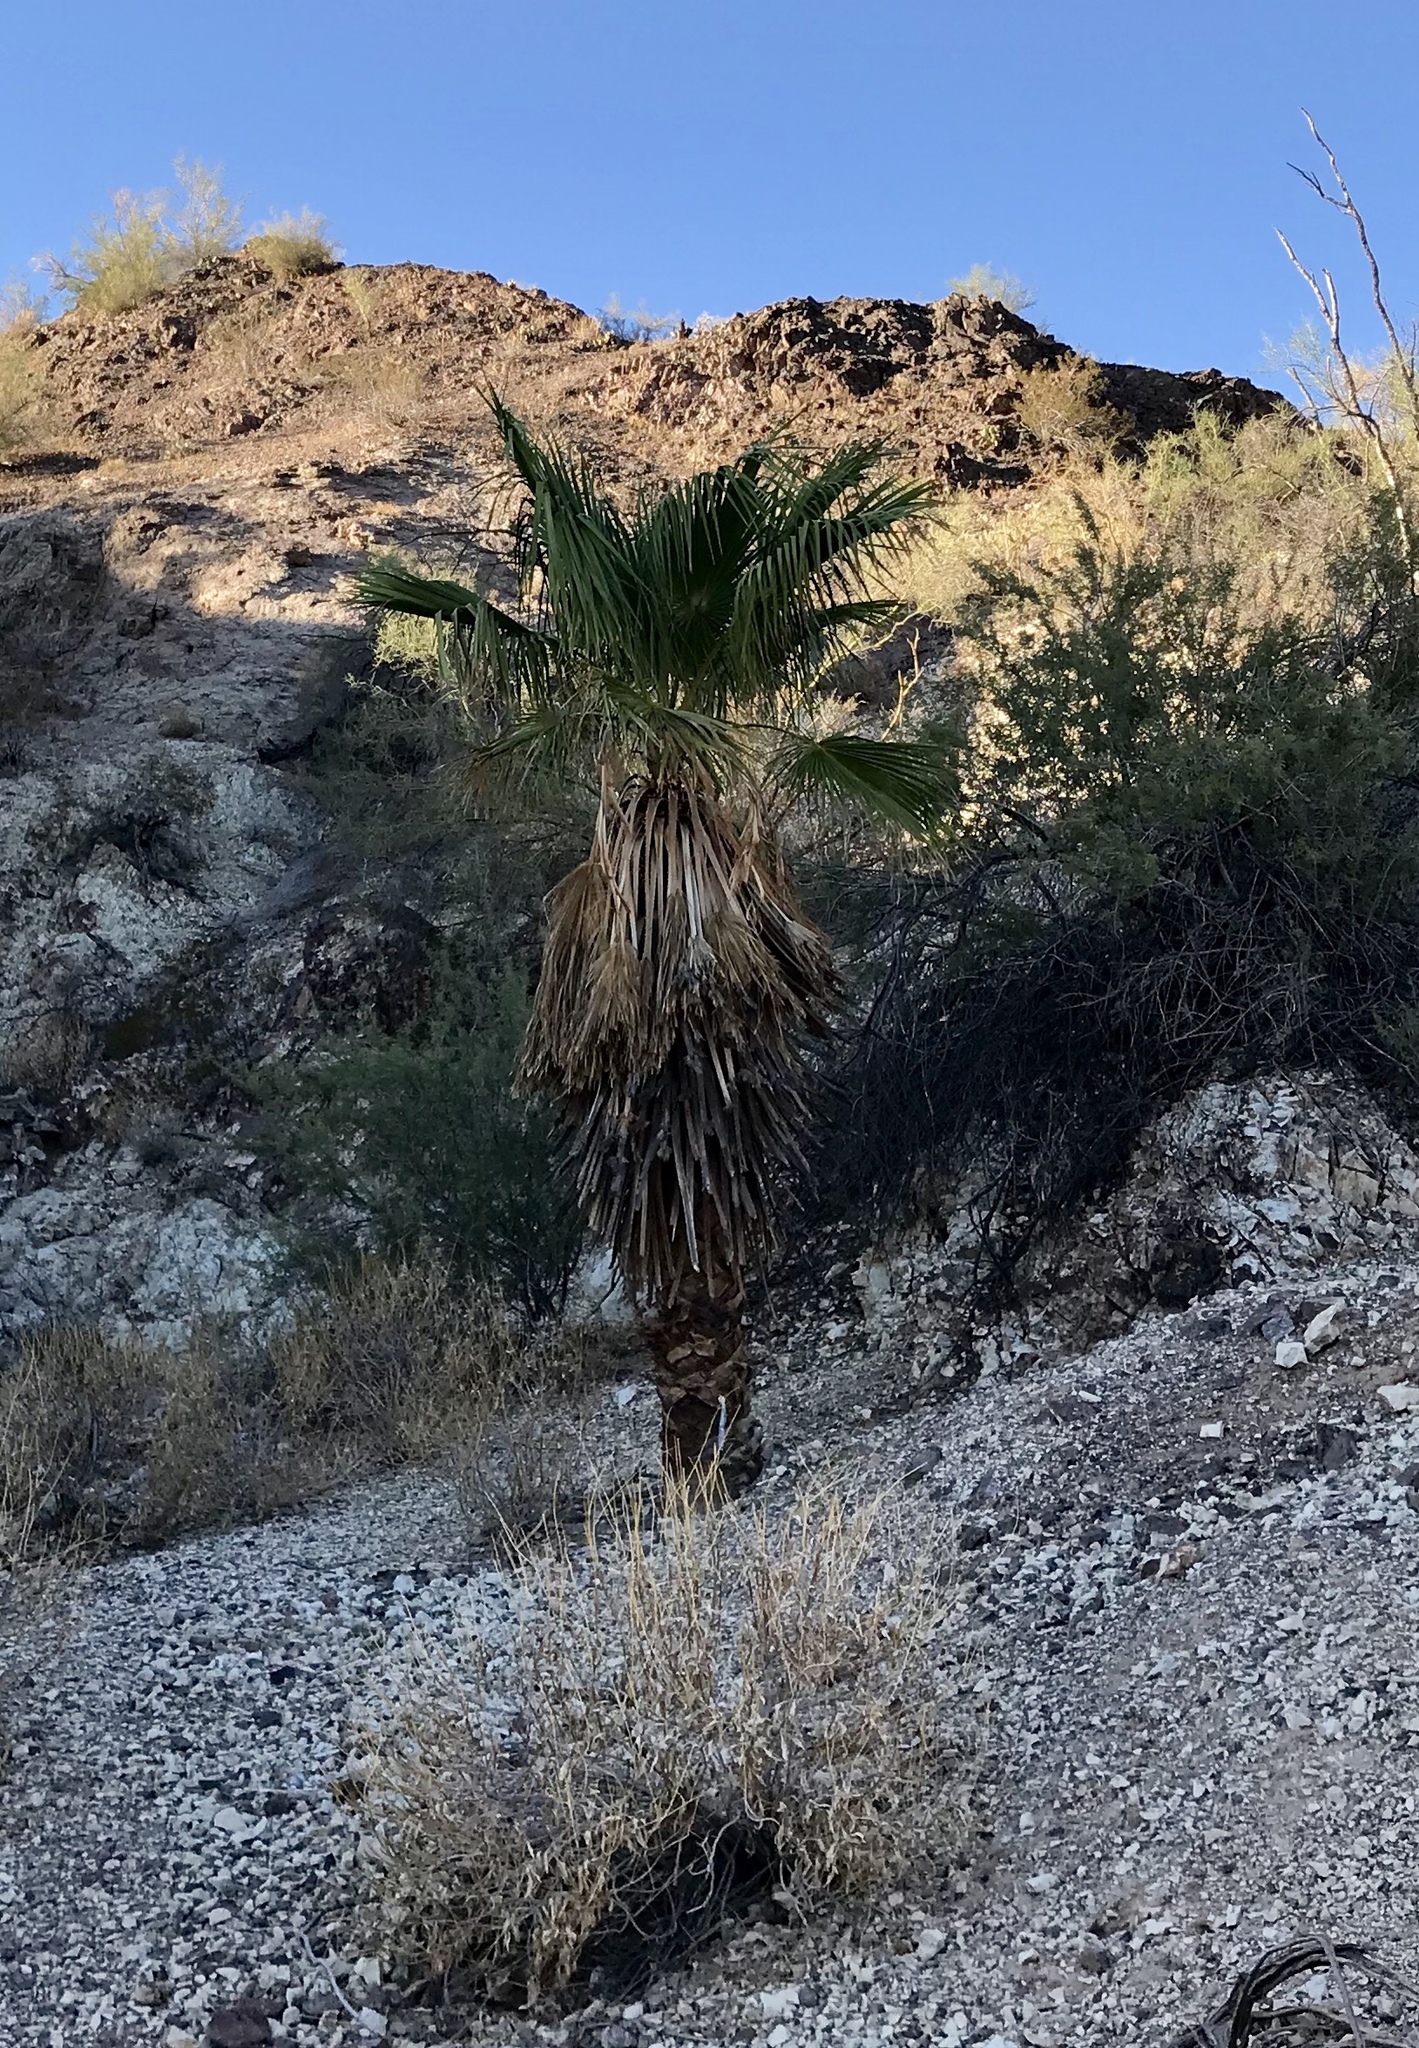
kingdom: Plantae
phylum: Tracheophyta
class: Liliopsida
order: Arecales
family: Arecaceae
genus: Washingtonia
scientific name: Washingtonia filifera
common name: California fan palm
